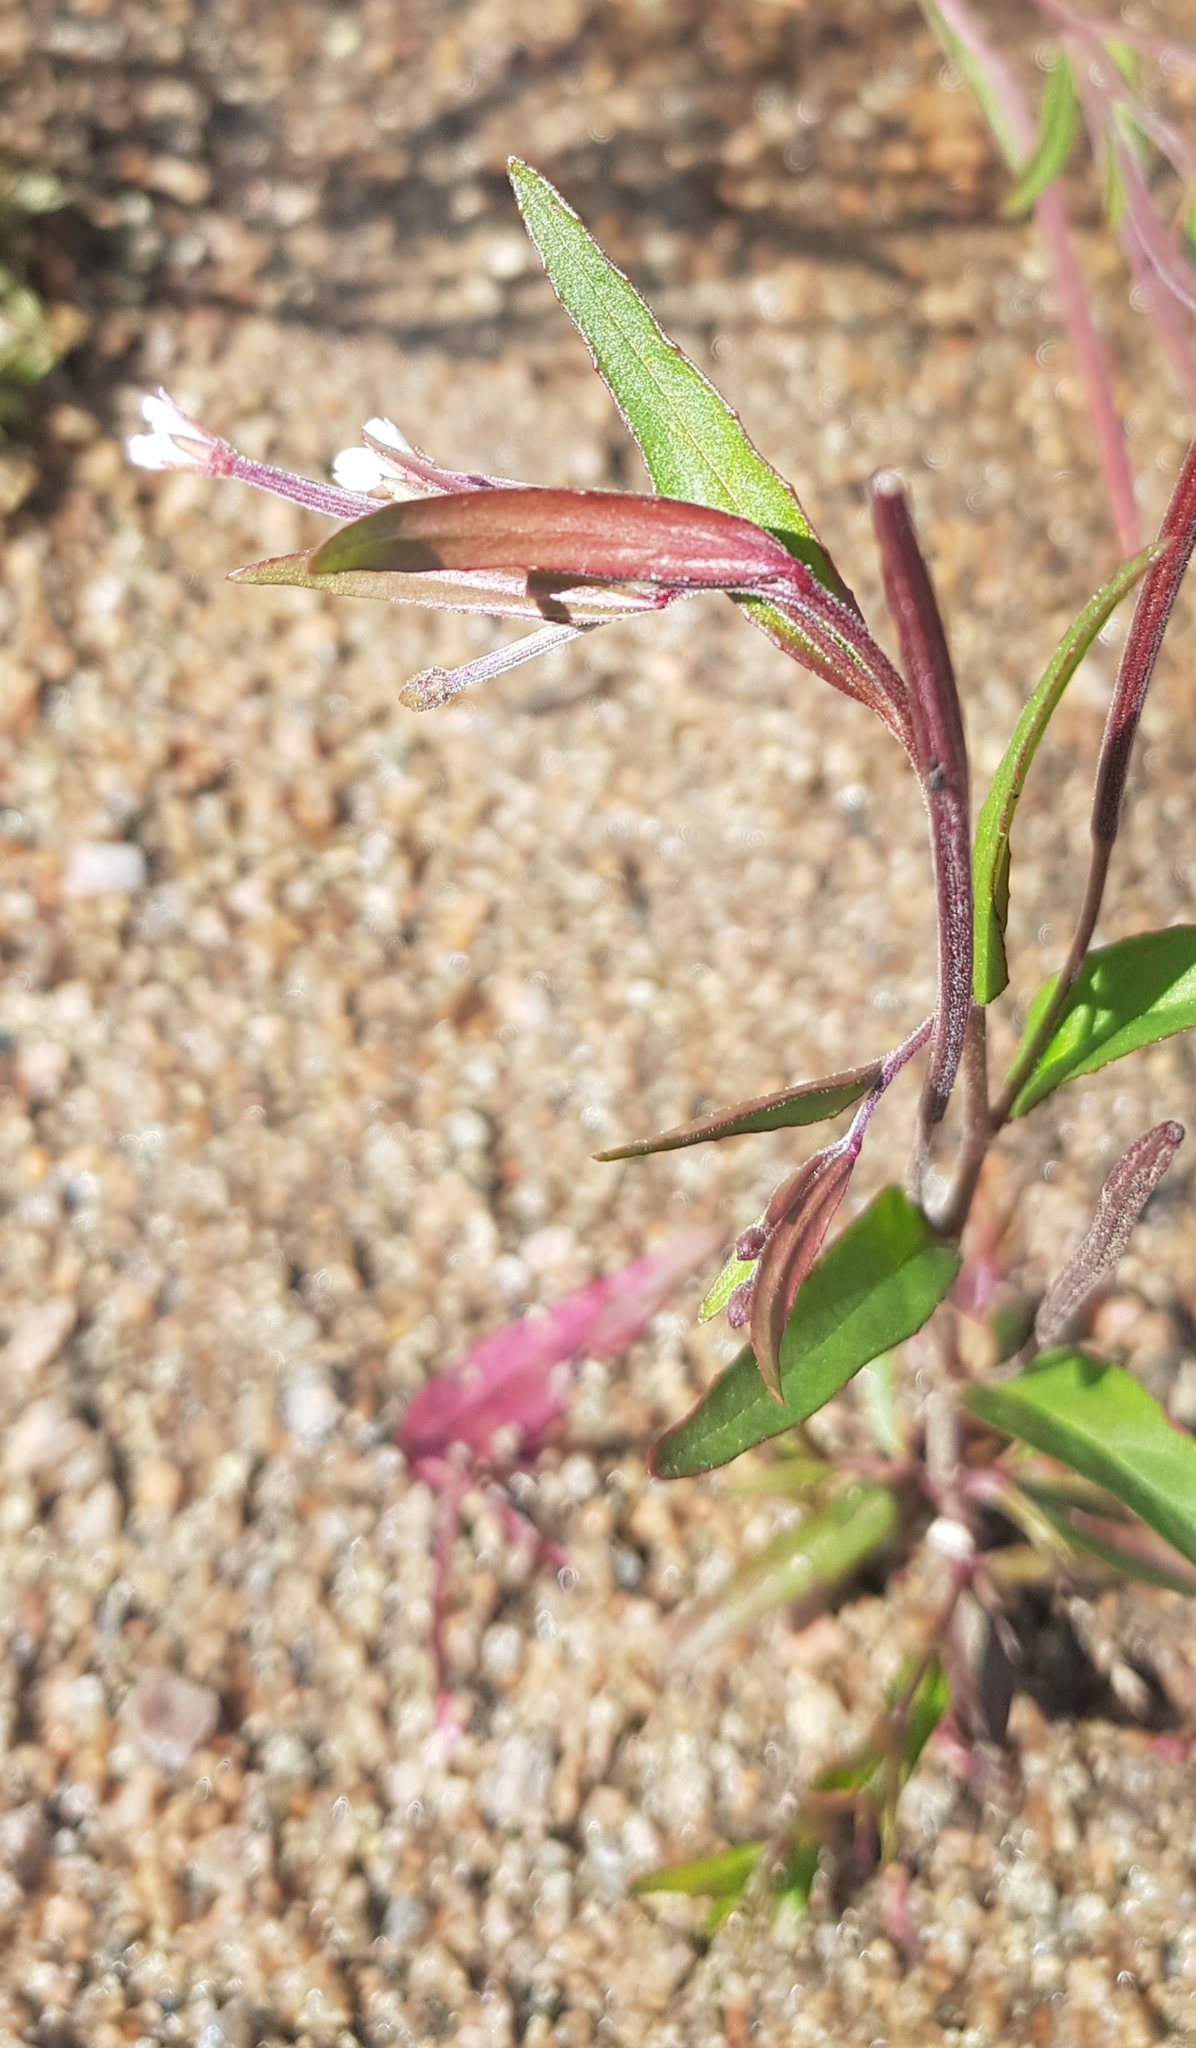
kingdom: Plantae
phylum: Tracheophyta
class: Magnoliopsida
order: Myrtales
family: Onagraceae
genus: Epilobium
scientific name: Epilobium palustre
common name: Marsh willowherb
